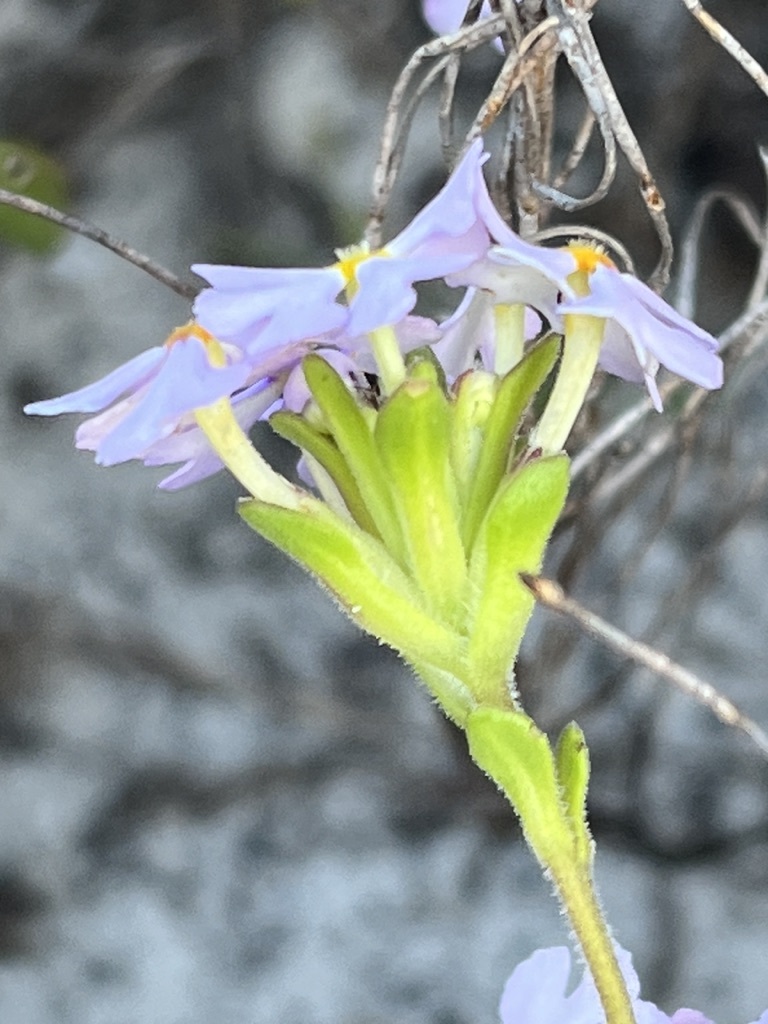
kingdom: Plantae
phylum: Tracheophyta
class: Magnoliopsida
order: Lamiales
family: Scrophulariaceae
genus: Zaluzianskya
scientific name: Zaluzianskya villosa
